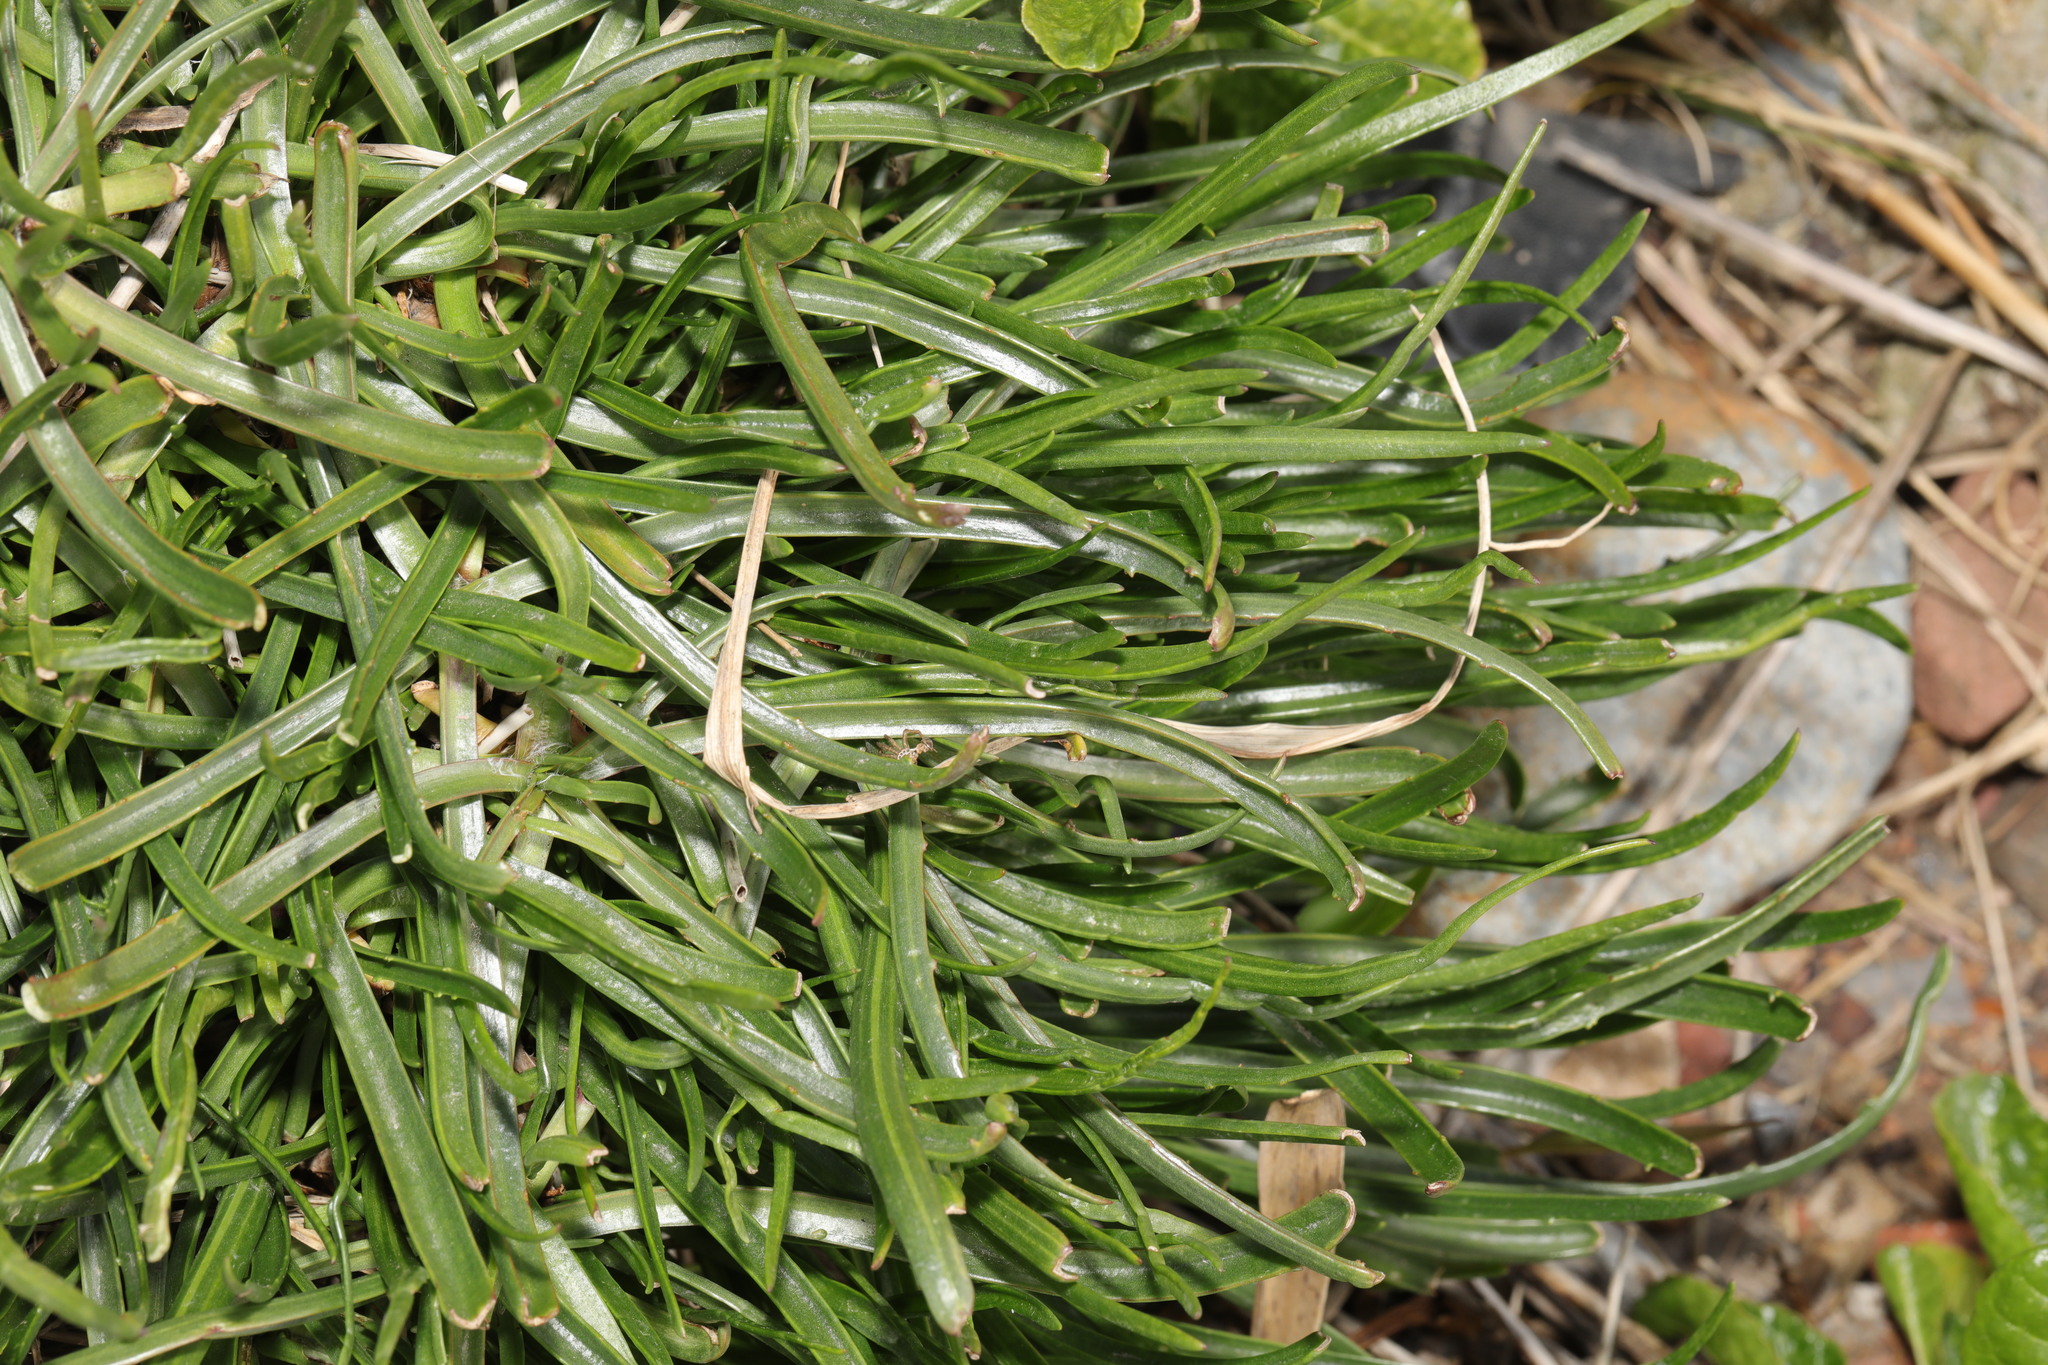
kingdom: Plantae
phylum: Tracheophyta
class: Magnoliopsida
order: Lamiales
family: Plantaginaceae
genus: Plantago
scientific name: Plantago maritima
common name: Sea plantain
